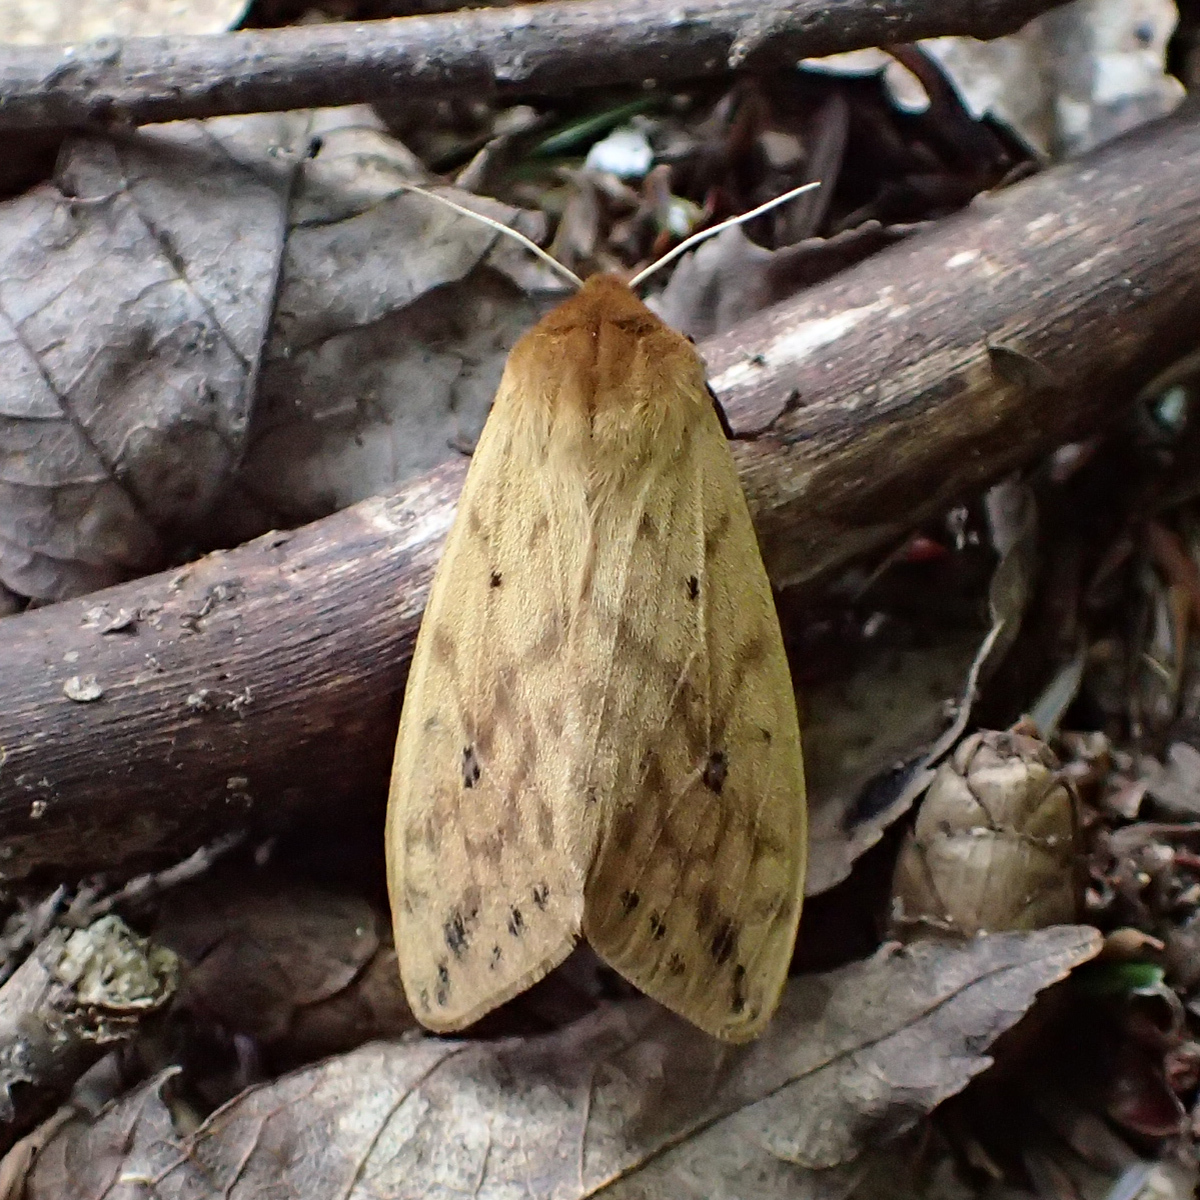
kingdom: Animalia
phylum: Arthropoda
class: Insecta
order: Lepidoptera
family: Erebidae
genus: Pyrrharctia
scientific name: Pyrrharctia isabella
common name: Isabella tiger moth
